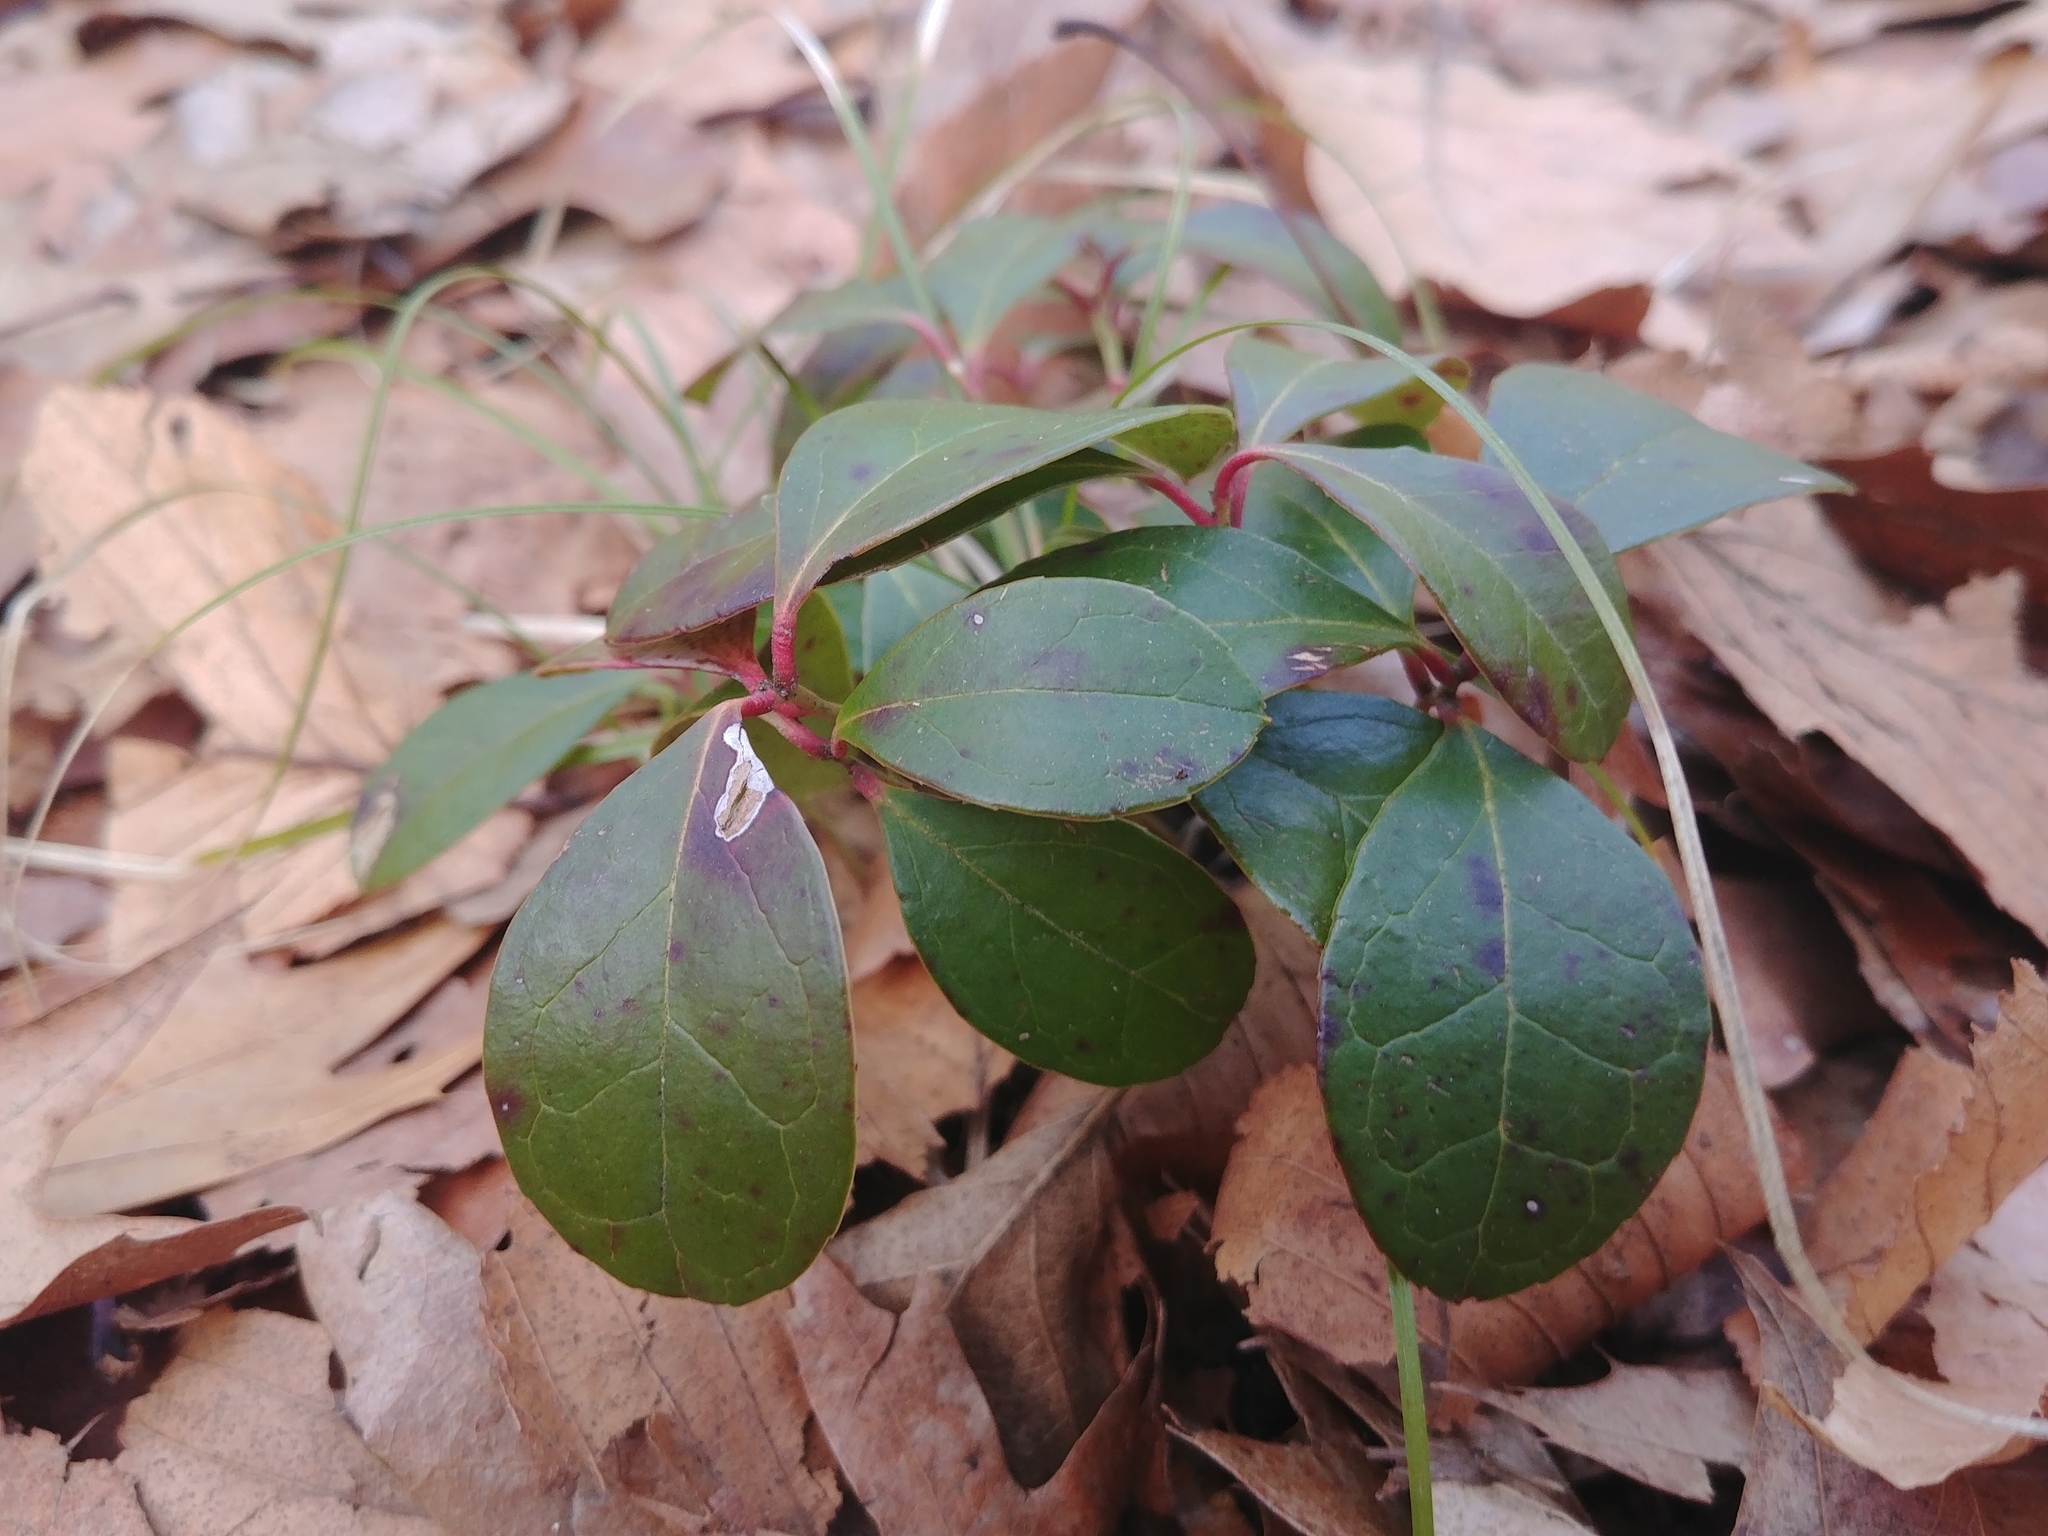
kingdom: Plantae
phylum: Tracheophyta
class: Magnoliopsida
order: Ericales
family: Ericaceae
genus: Gaultheria
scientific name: Gaultheria procumbens
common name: Checkerberry
